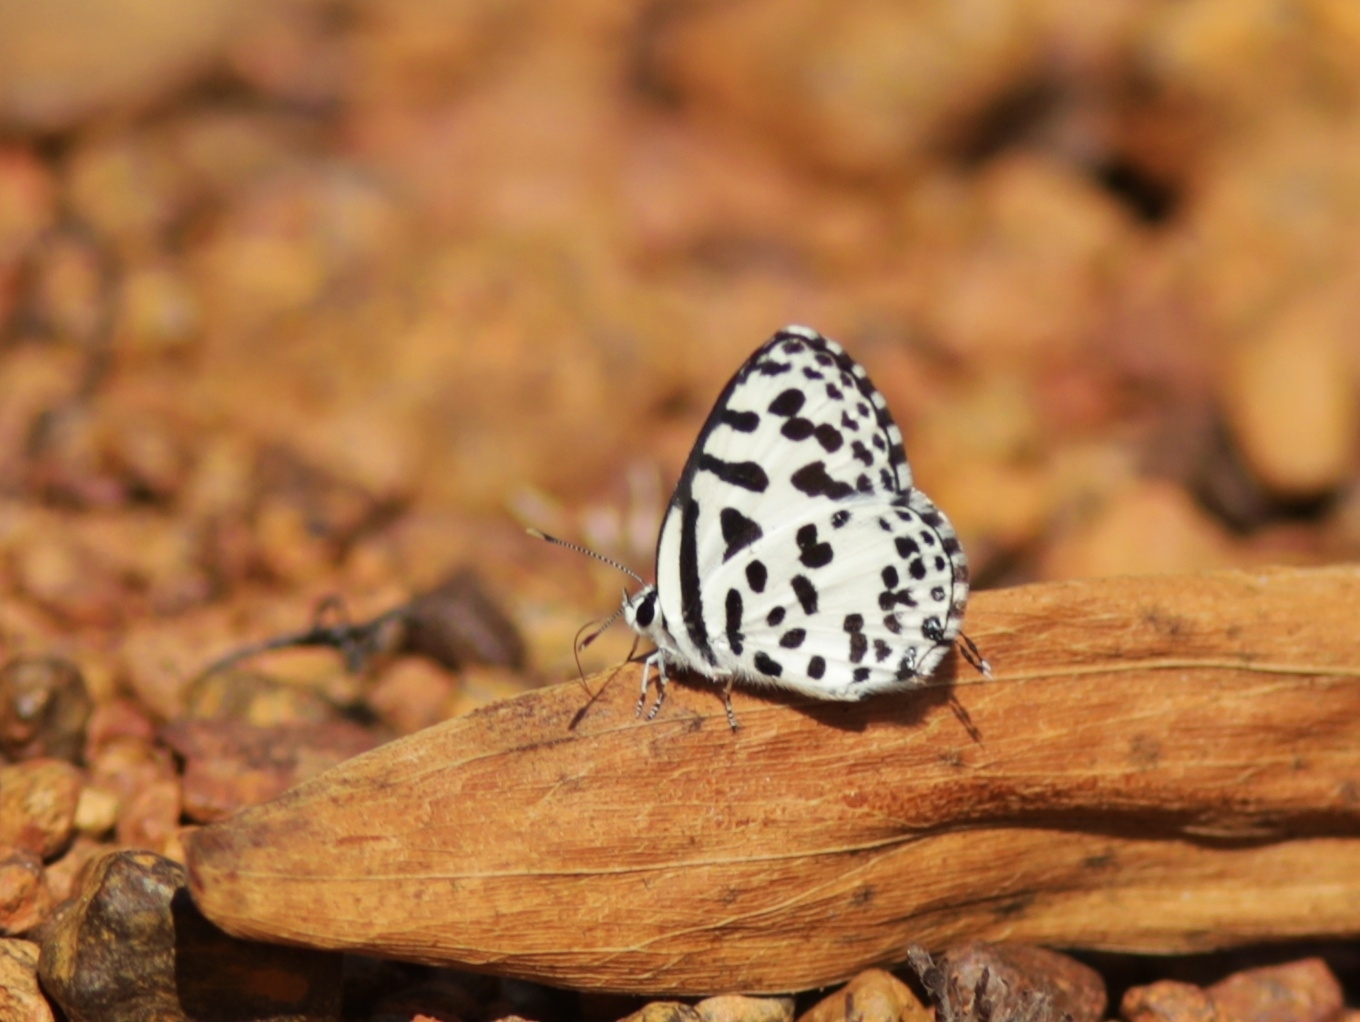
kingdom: Animalia
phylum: Arthropoda
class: Insecta
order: Lepidoptera
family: Lycaenidae
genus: Castalius
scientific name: Castalius rosimon
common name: Common pierrot
